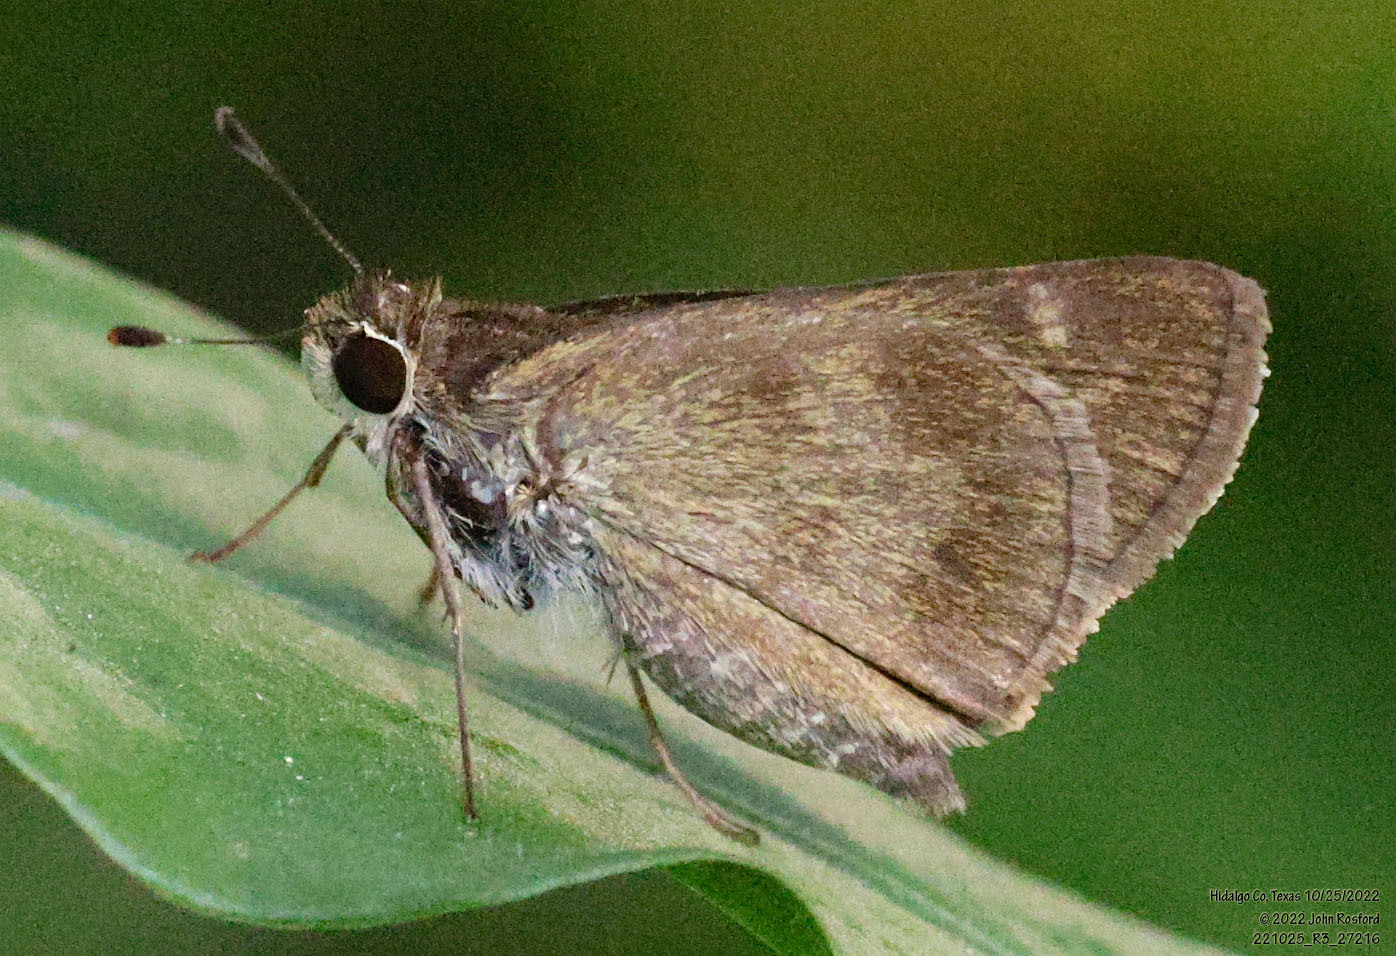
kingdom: Animalia
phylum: Arthropoda
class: Insecta
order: Lepidoptera
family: Hesperiidae
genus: Polites
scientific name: Polites vibex
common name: Whirlabout
